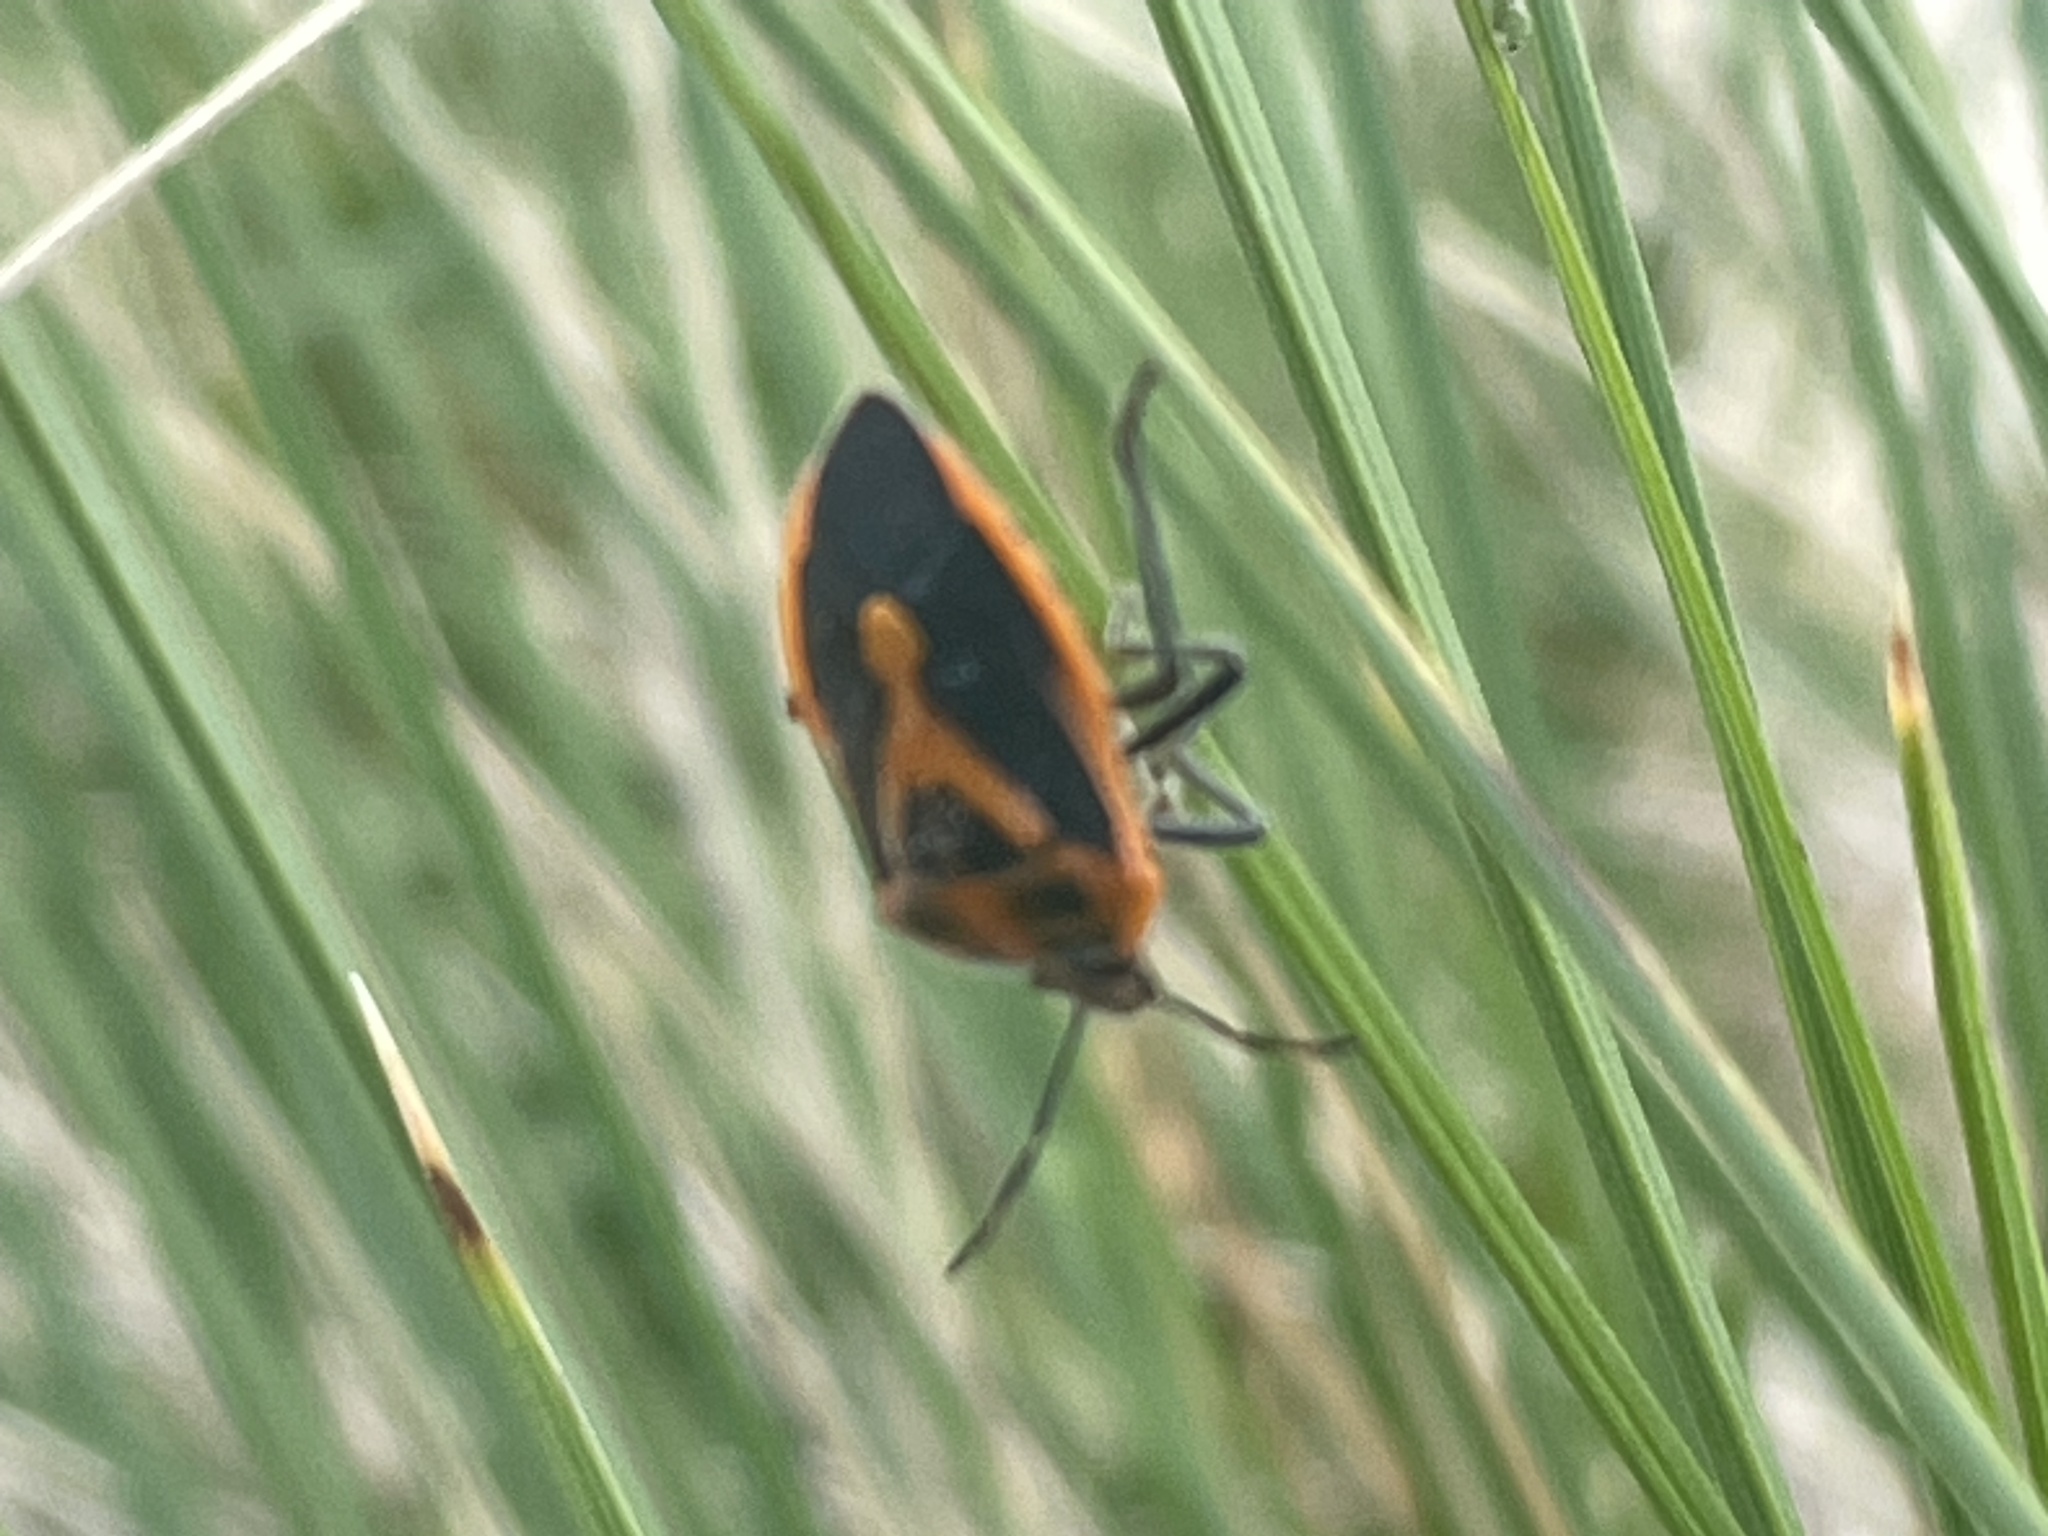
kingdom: Animalia
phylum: Arthropoda
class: Insecta
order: Hemiptera
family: Pentatomidae
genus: Agonoscelis
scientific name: Agonoscelis rutila
